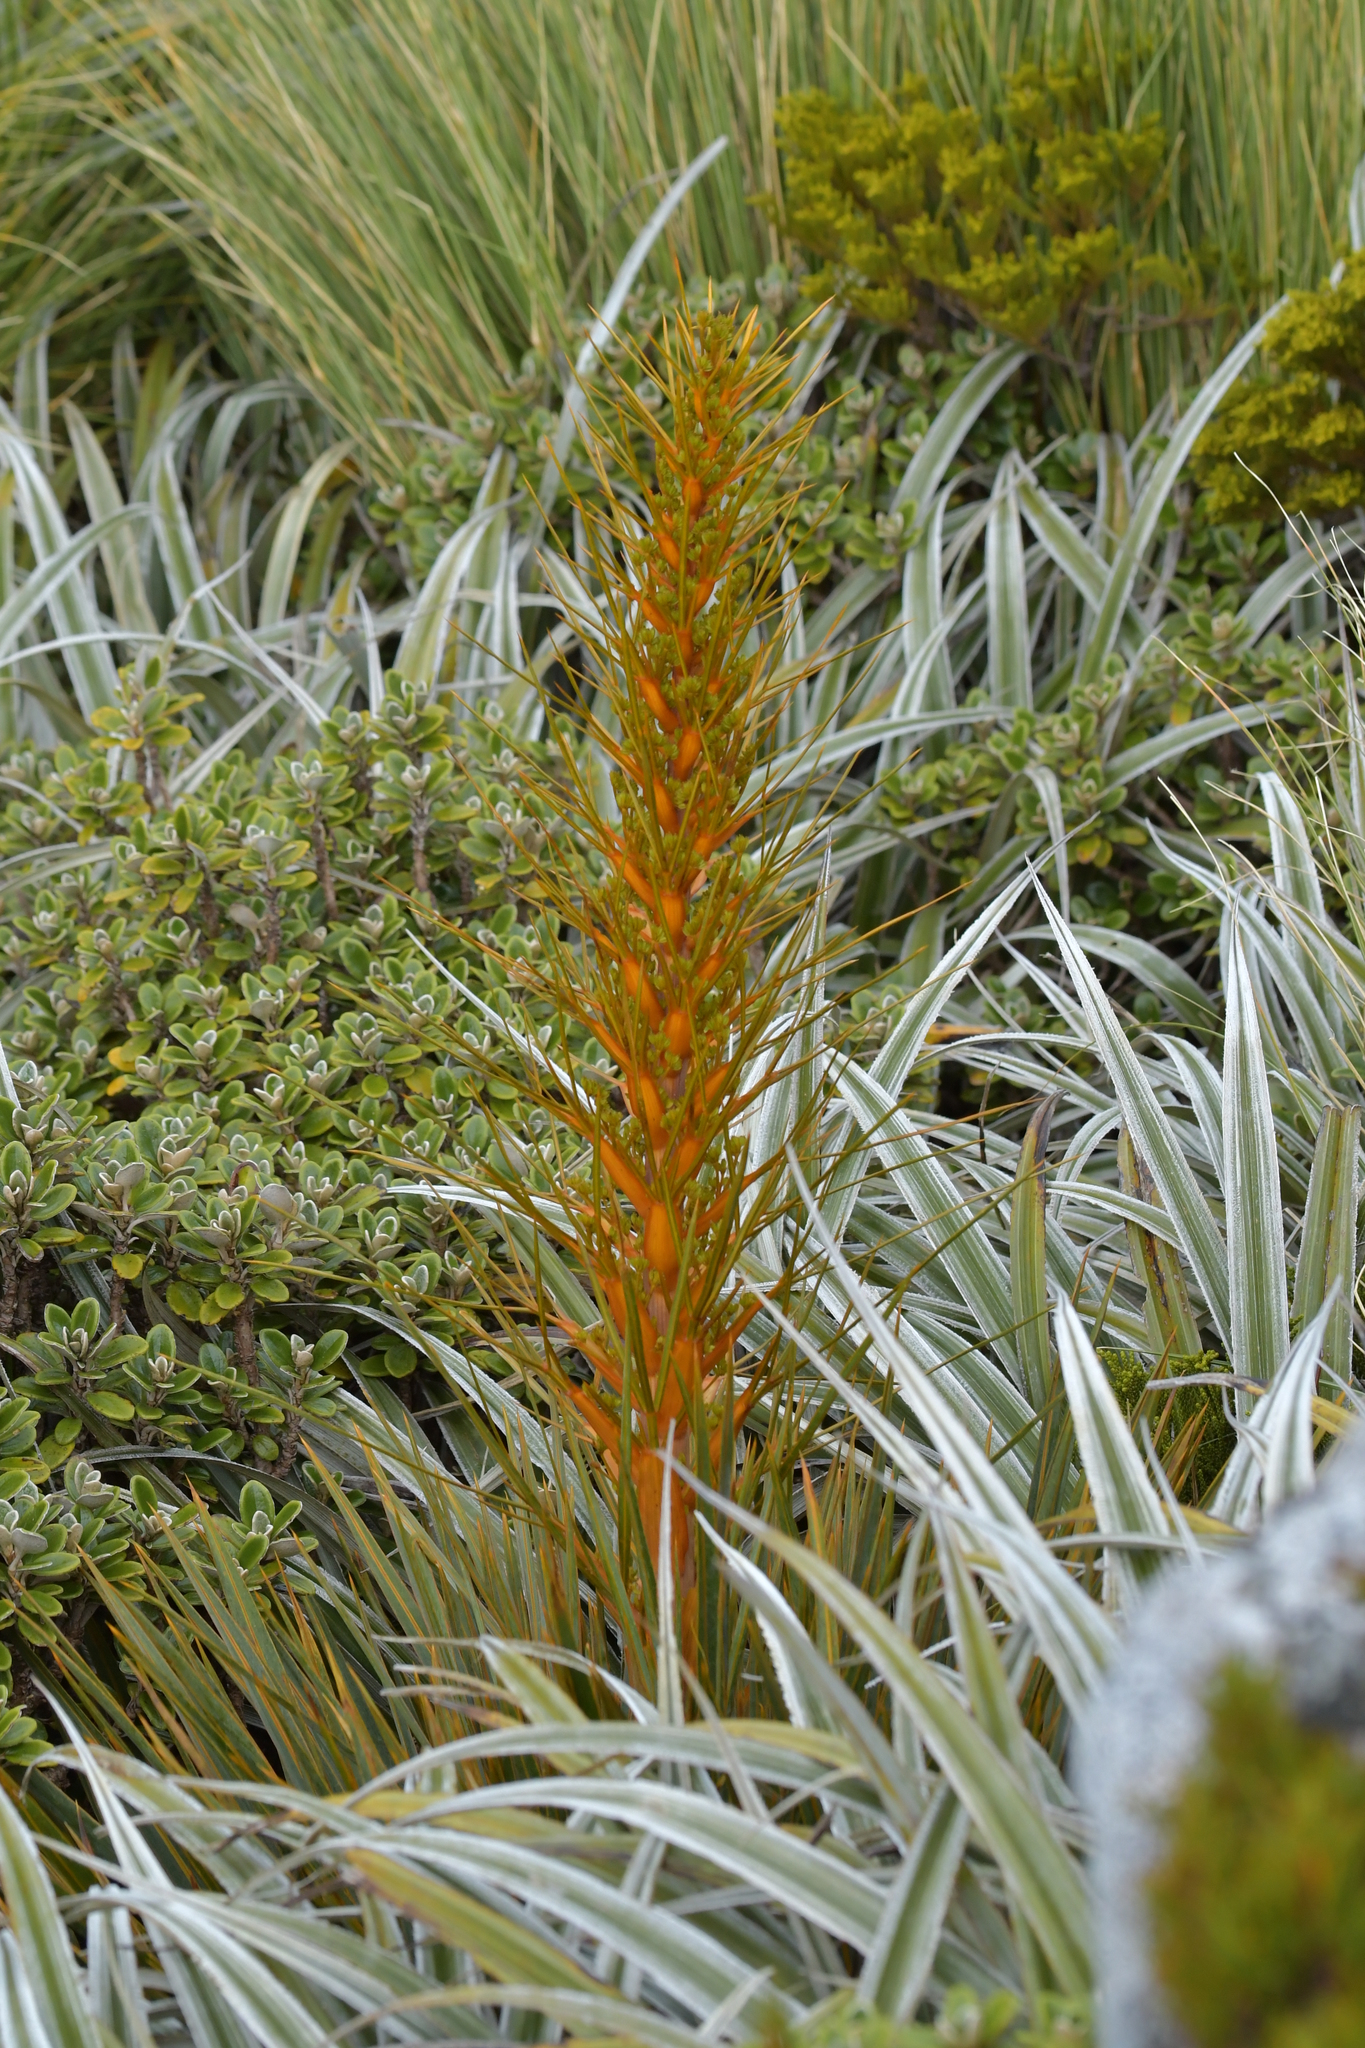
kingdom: Plantae
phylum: Tracheophyta
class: Magnoliopsida
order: Apiales
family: Apiaceae
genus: Aciphylla
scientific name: Aciphylla colensoi
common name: Colenso's spaniard
